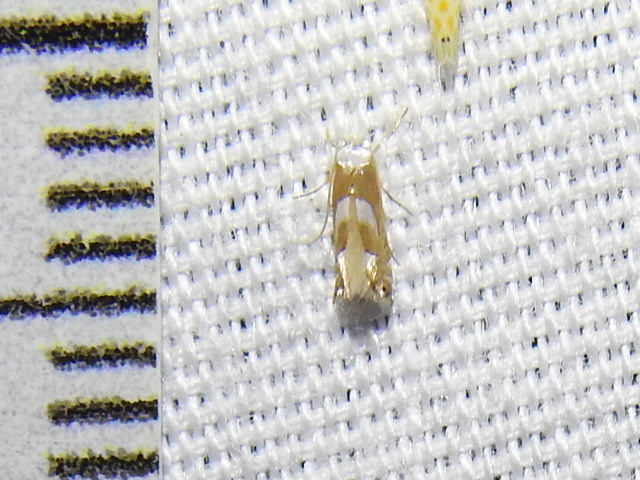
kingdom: Animalia
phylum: Arthropoda
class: Insecta
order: Lepidoptera
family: Gracillariidae
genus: Phyllonorycter
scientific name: Phyllonorycter fitchella
